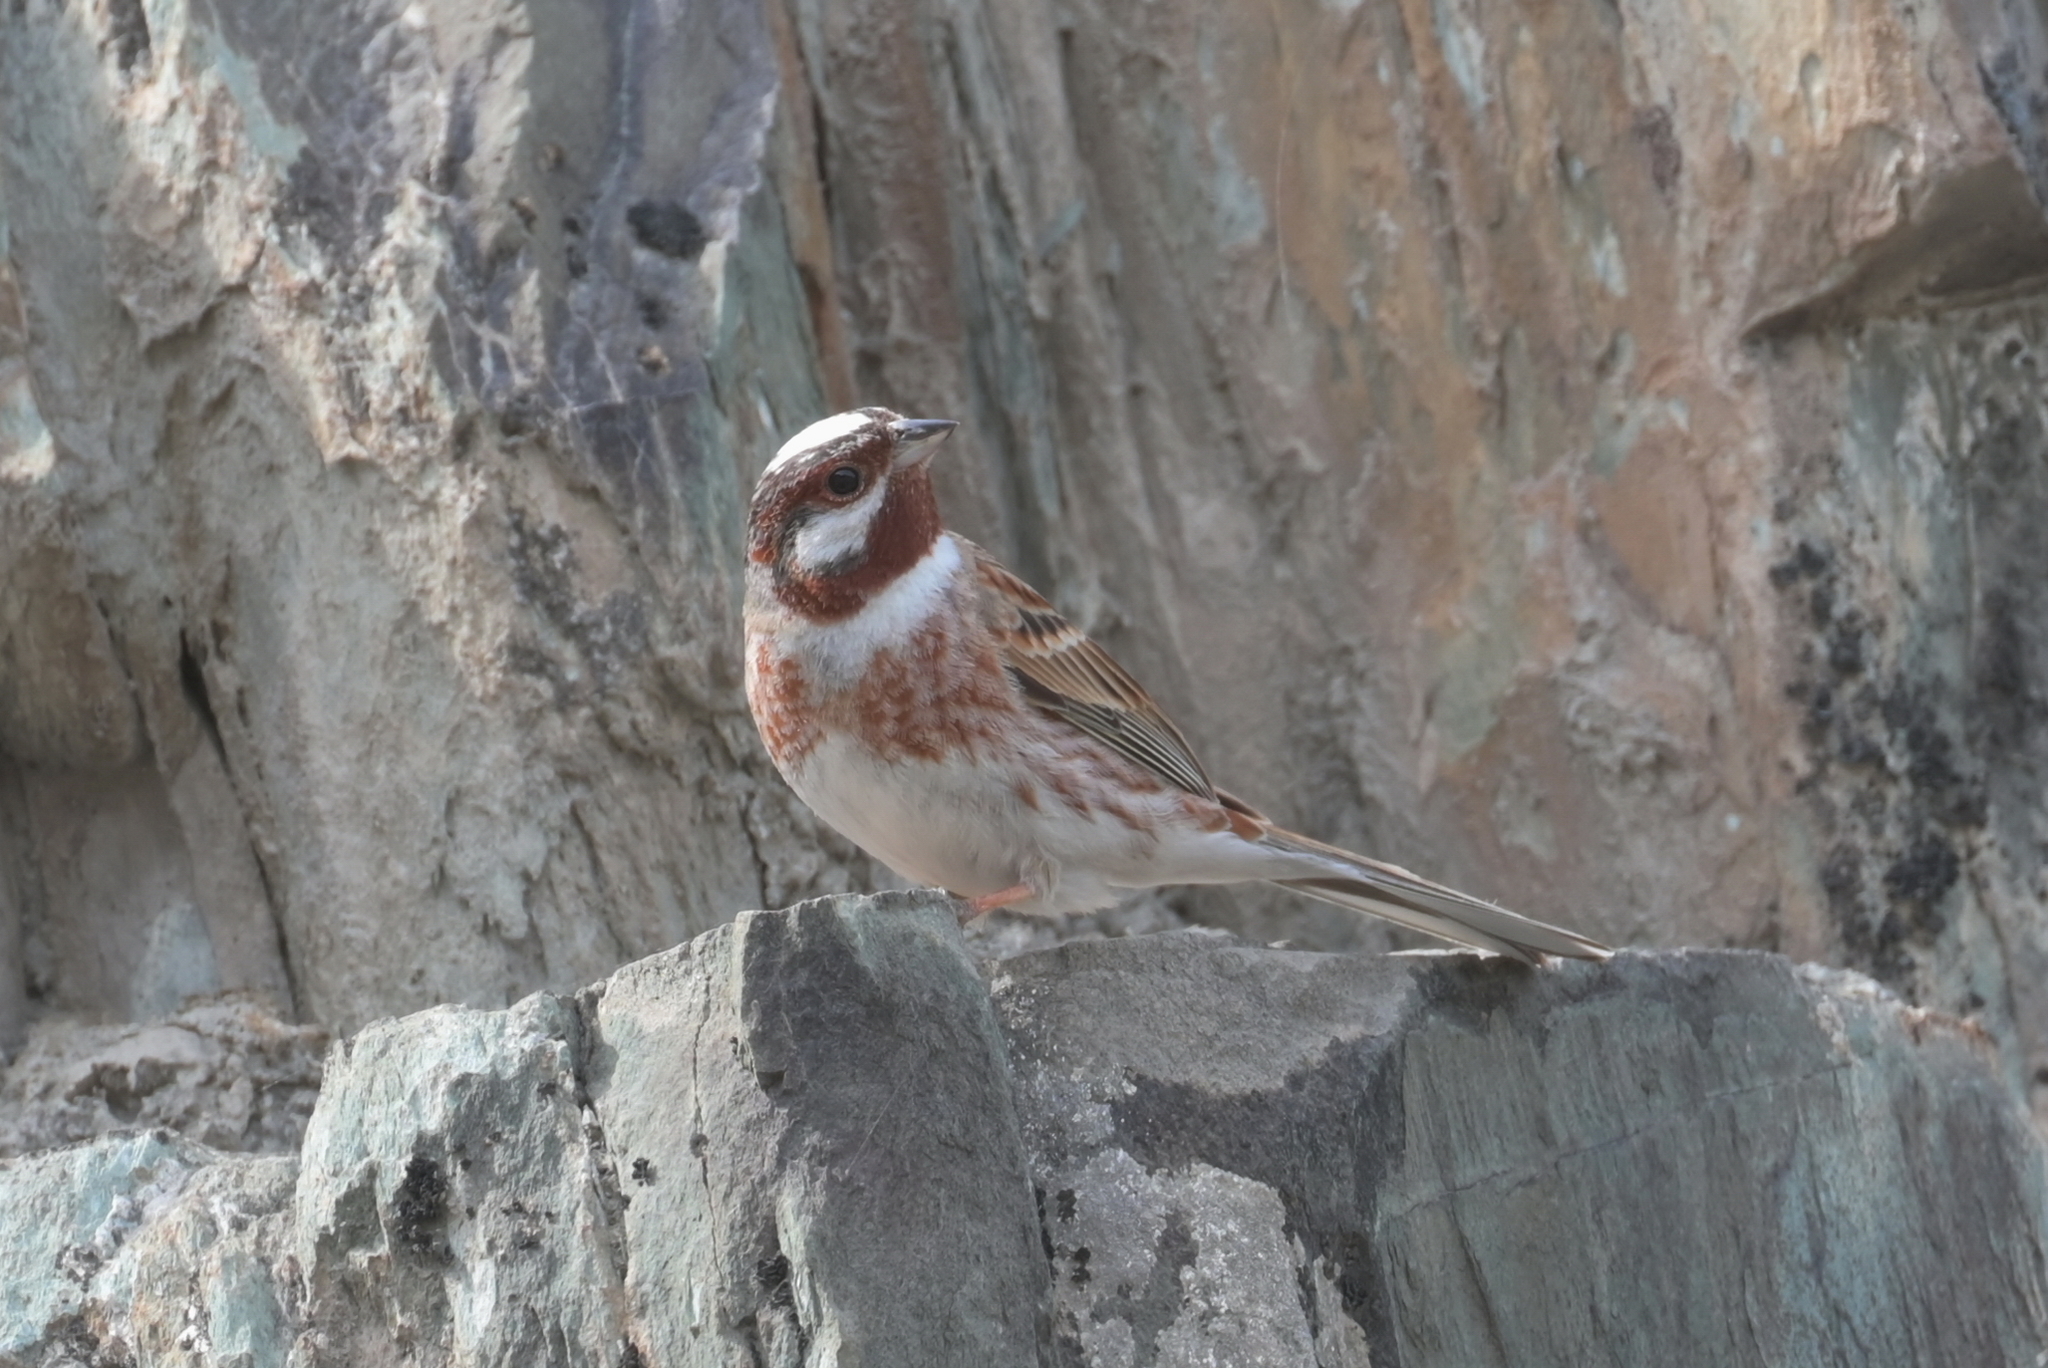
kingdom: Animalia
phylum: Chordata
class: Aves
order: Passeriformes
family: Emberizidae
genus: Emberiza
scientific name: Emberiza leucocephalos
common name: Pine bunting
